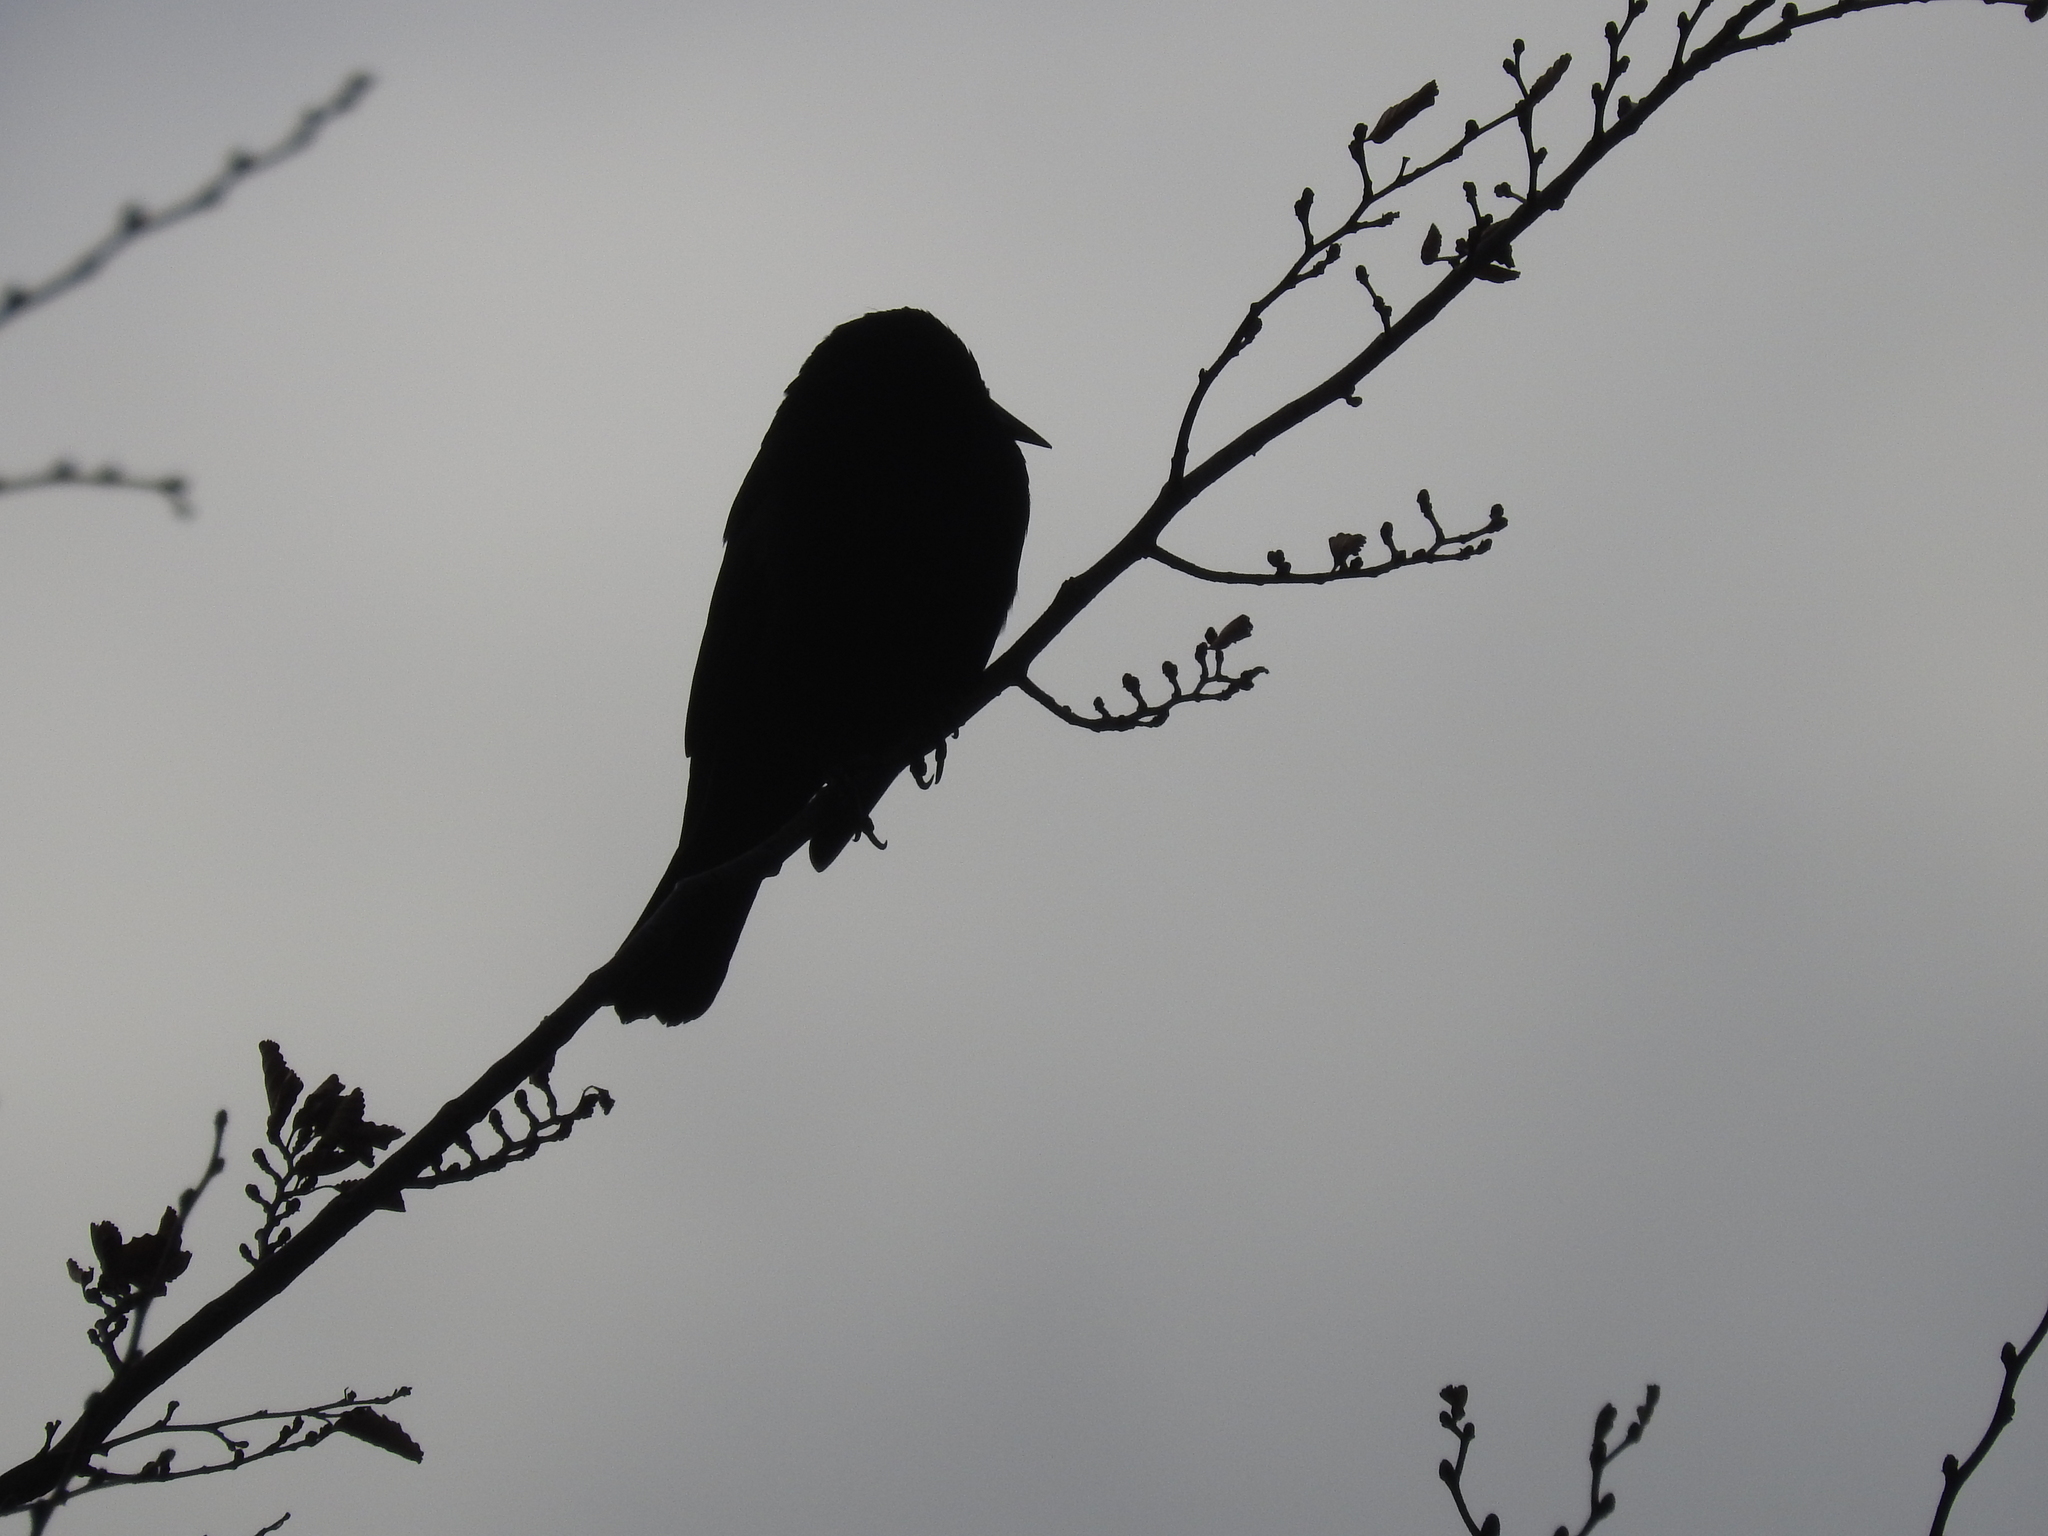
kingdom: Animalia
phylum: Chordata
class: Aves
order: Passeriformes
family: Icteridae
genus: Curaeus
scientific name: Curaeus curaeus
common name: Austral blackbird
